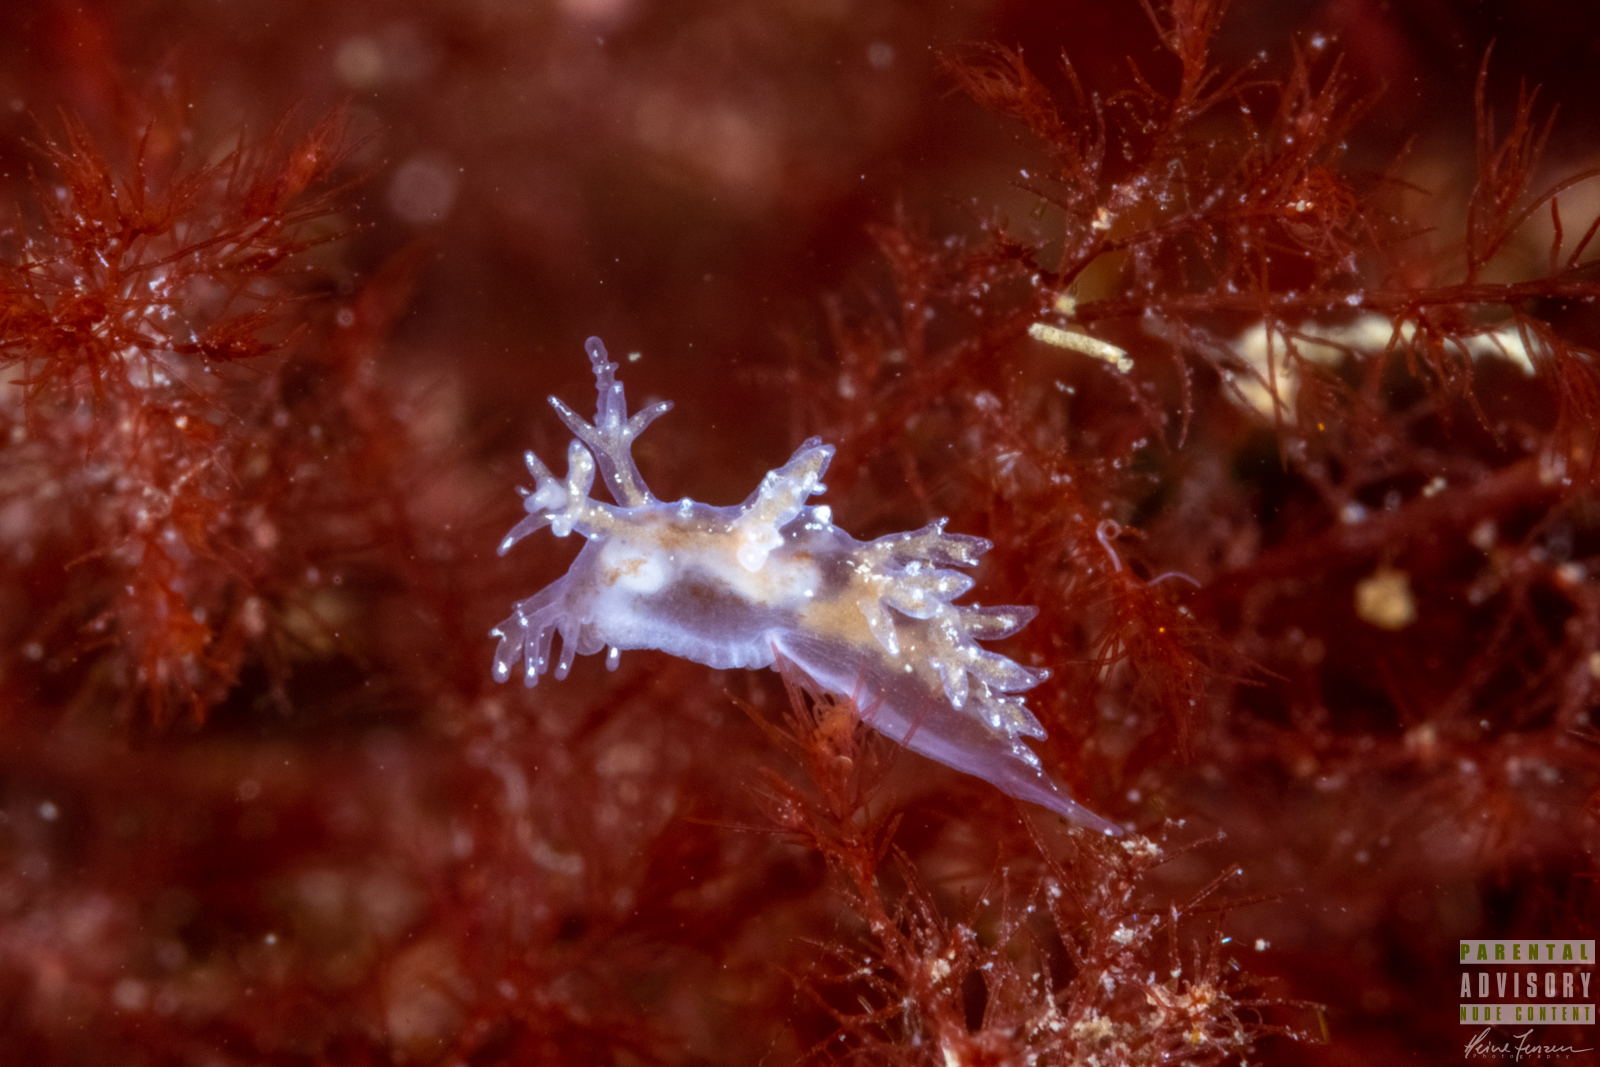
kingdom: Animalia
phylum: Mollusca
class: Gastropoda
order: Nudibranchia
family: Dendronotidae
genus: Dendronotus
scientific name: Dendronotus frondosus
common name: Bushy-backed nudibranch
